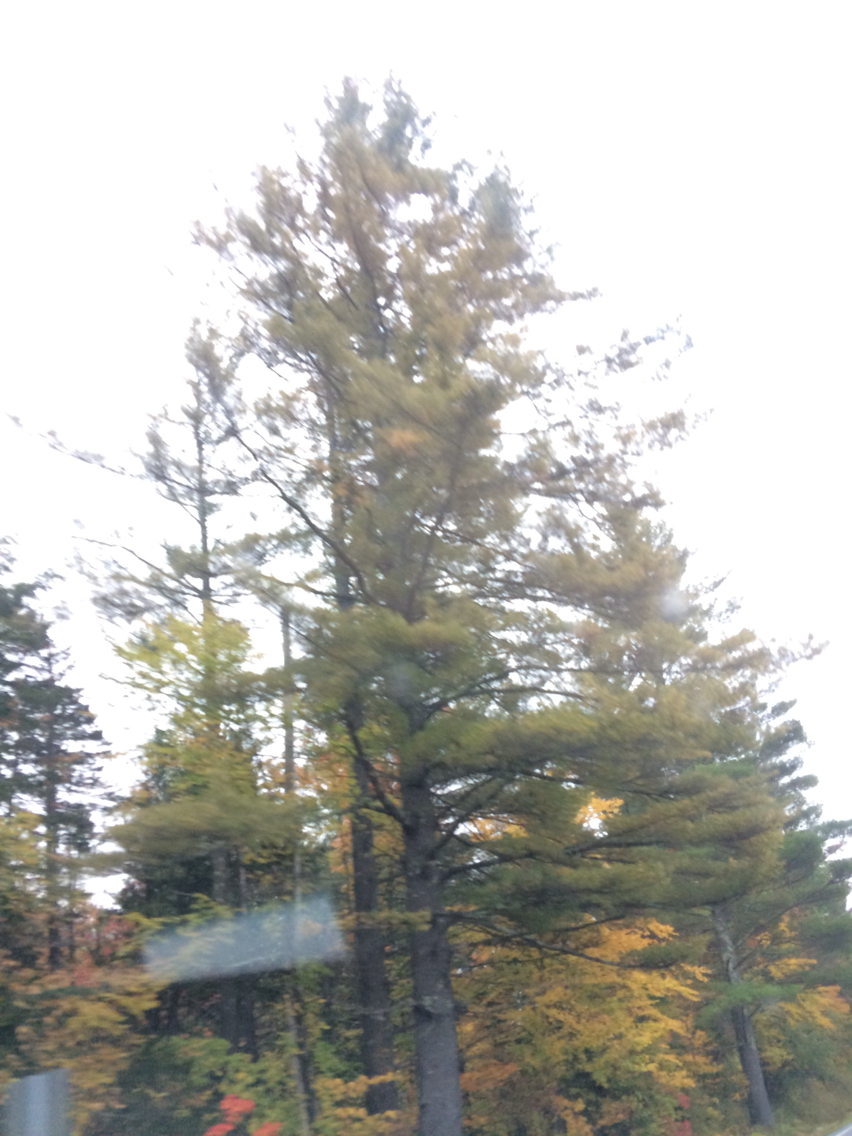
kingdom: Plantae
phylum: Tracheophyta
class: Pinopsida
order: Pinales
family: Pinaceae
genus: Pinus
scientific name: Pinus strobus
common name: Weymouth pine
